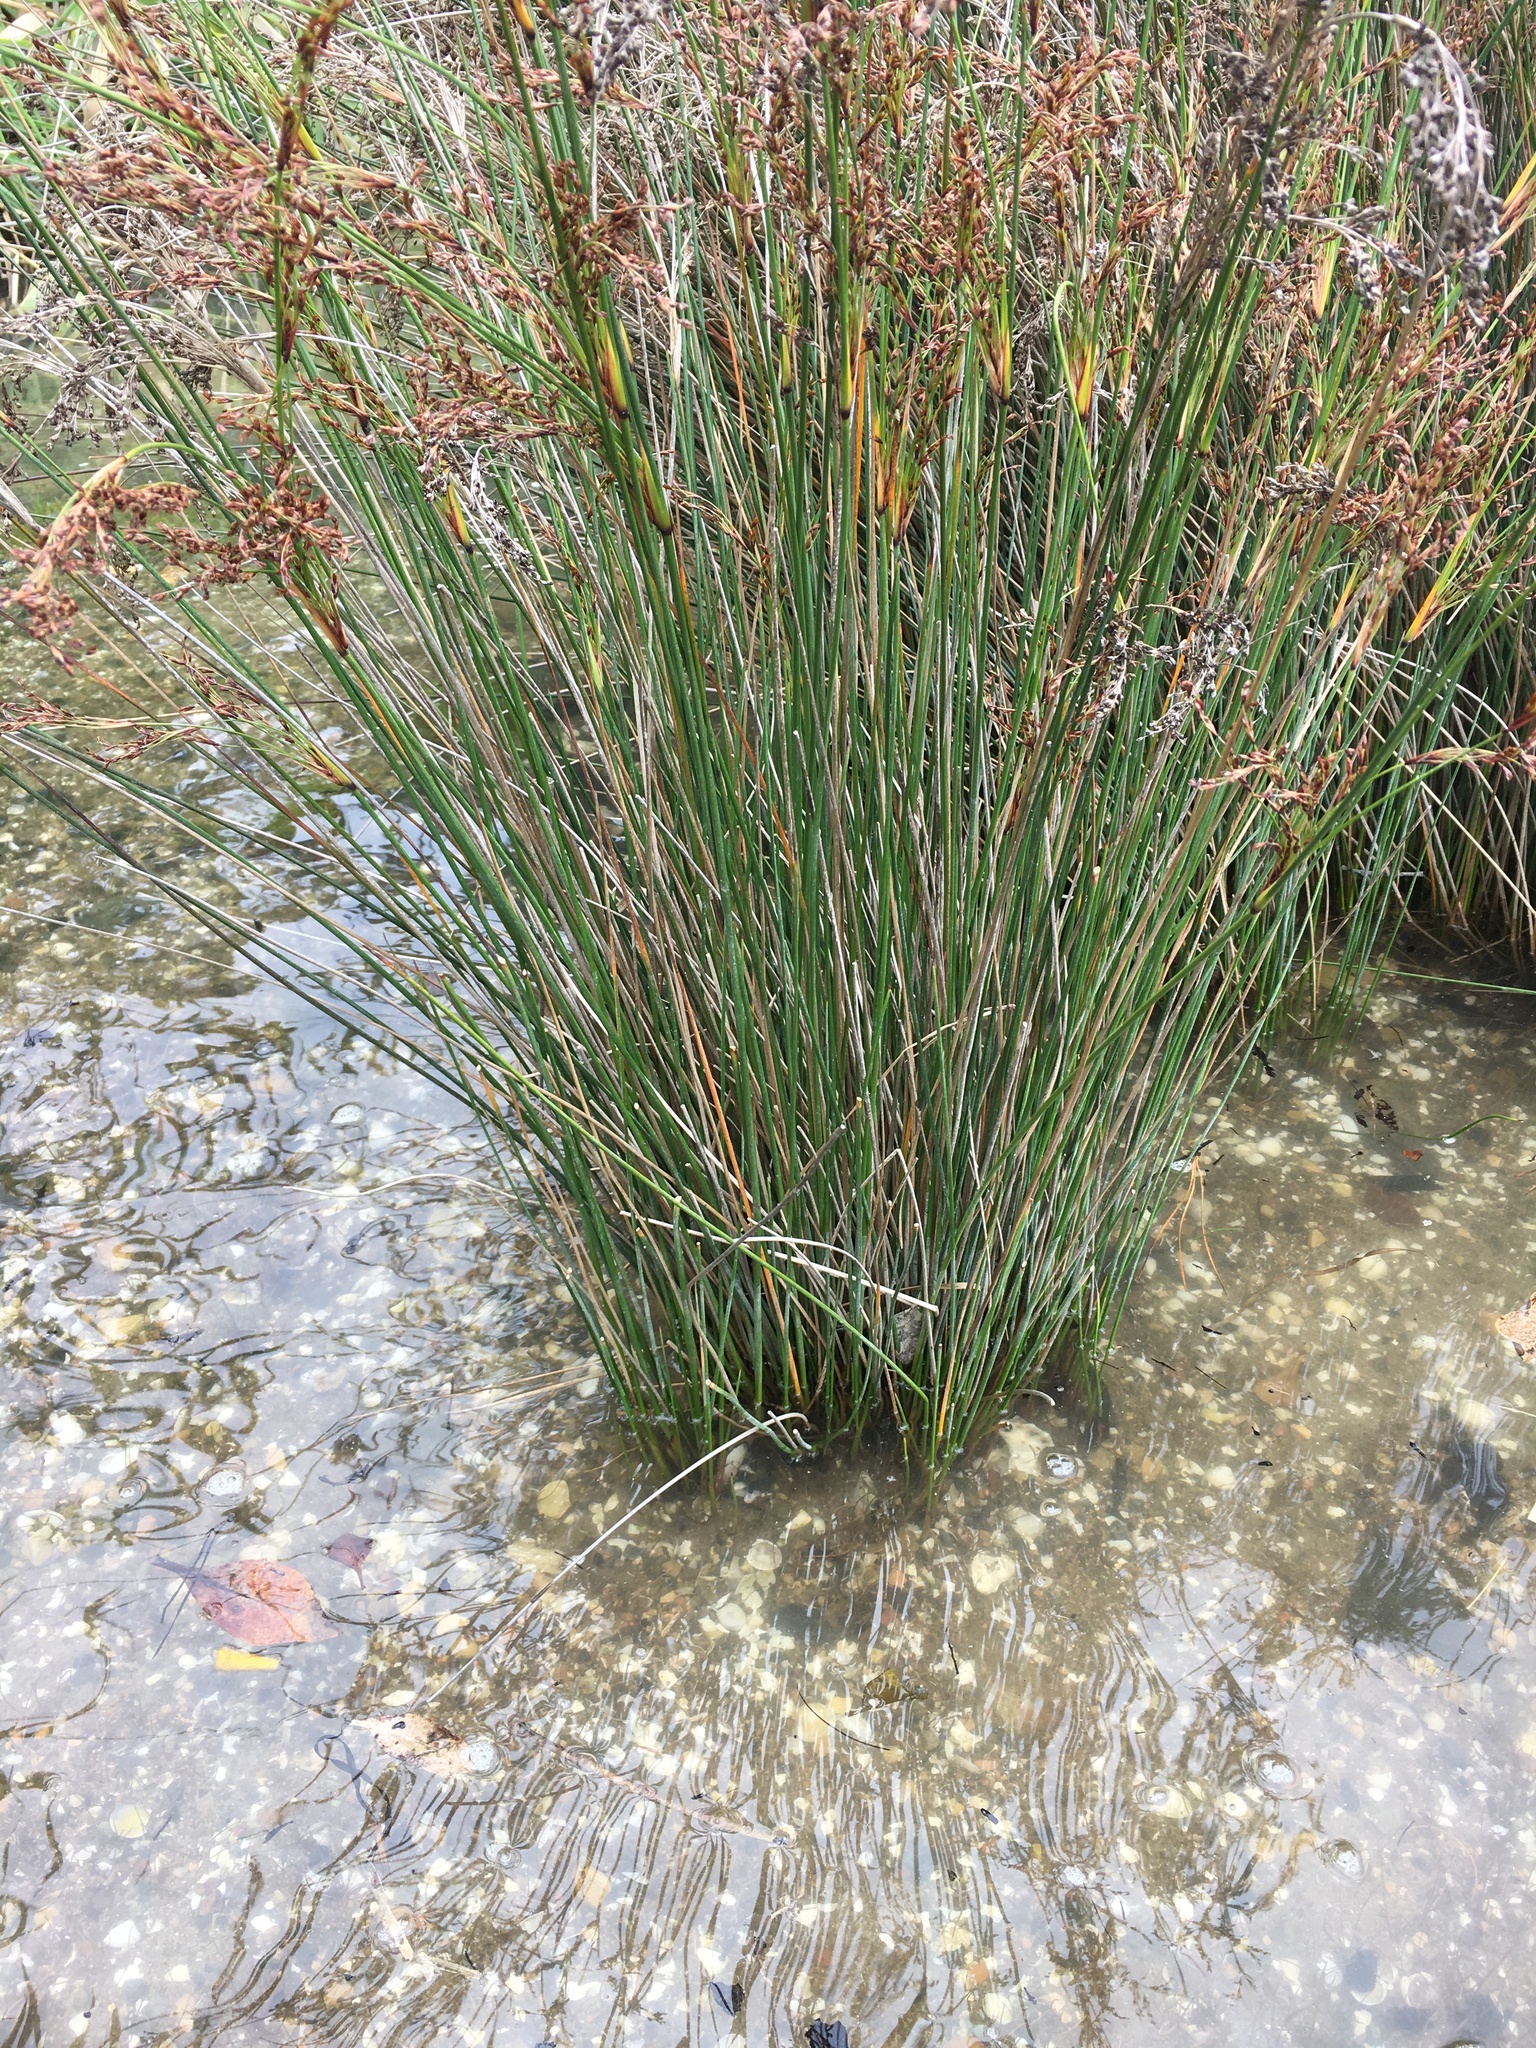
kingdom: Plantae
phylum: Tracheophyta
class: Liliopsida
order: Poales
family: Juncaceae
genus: Juncus
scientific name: Juncus kraussii
